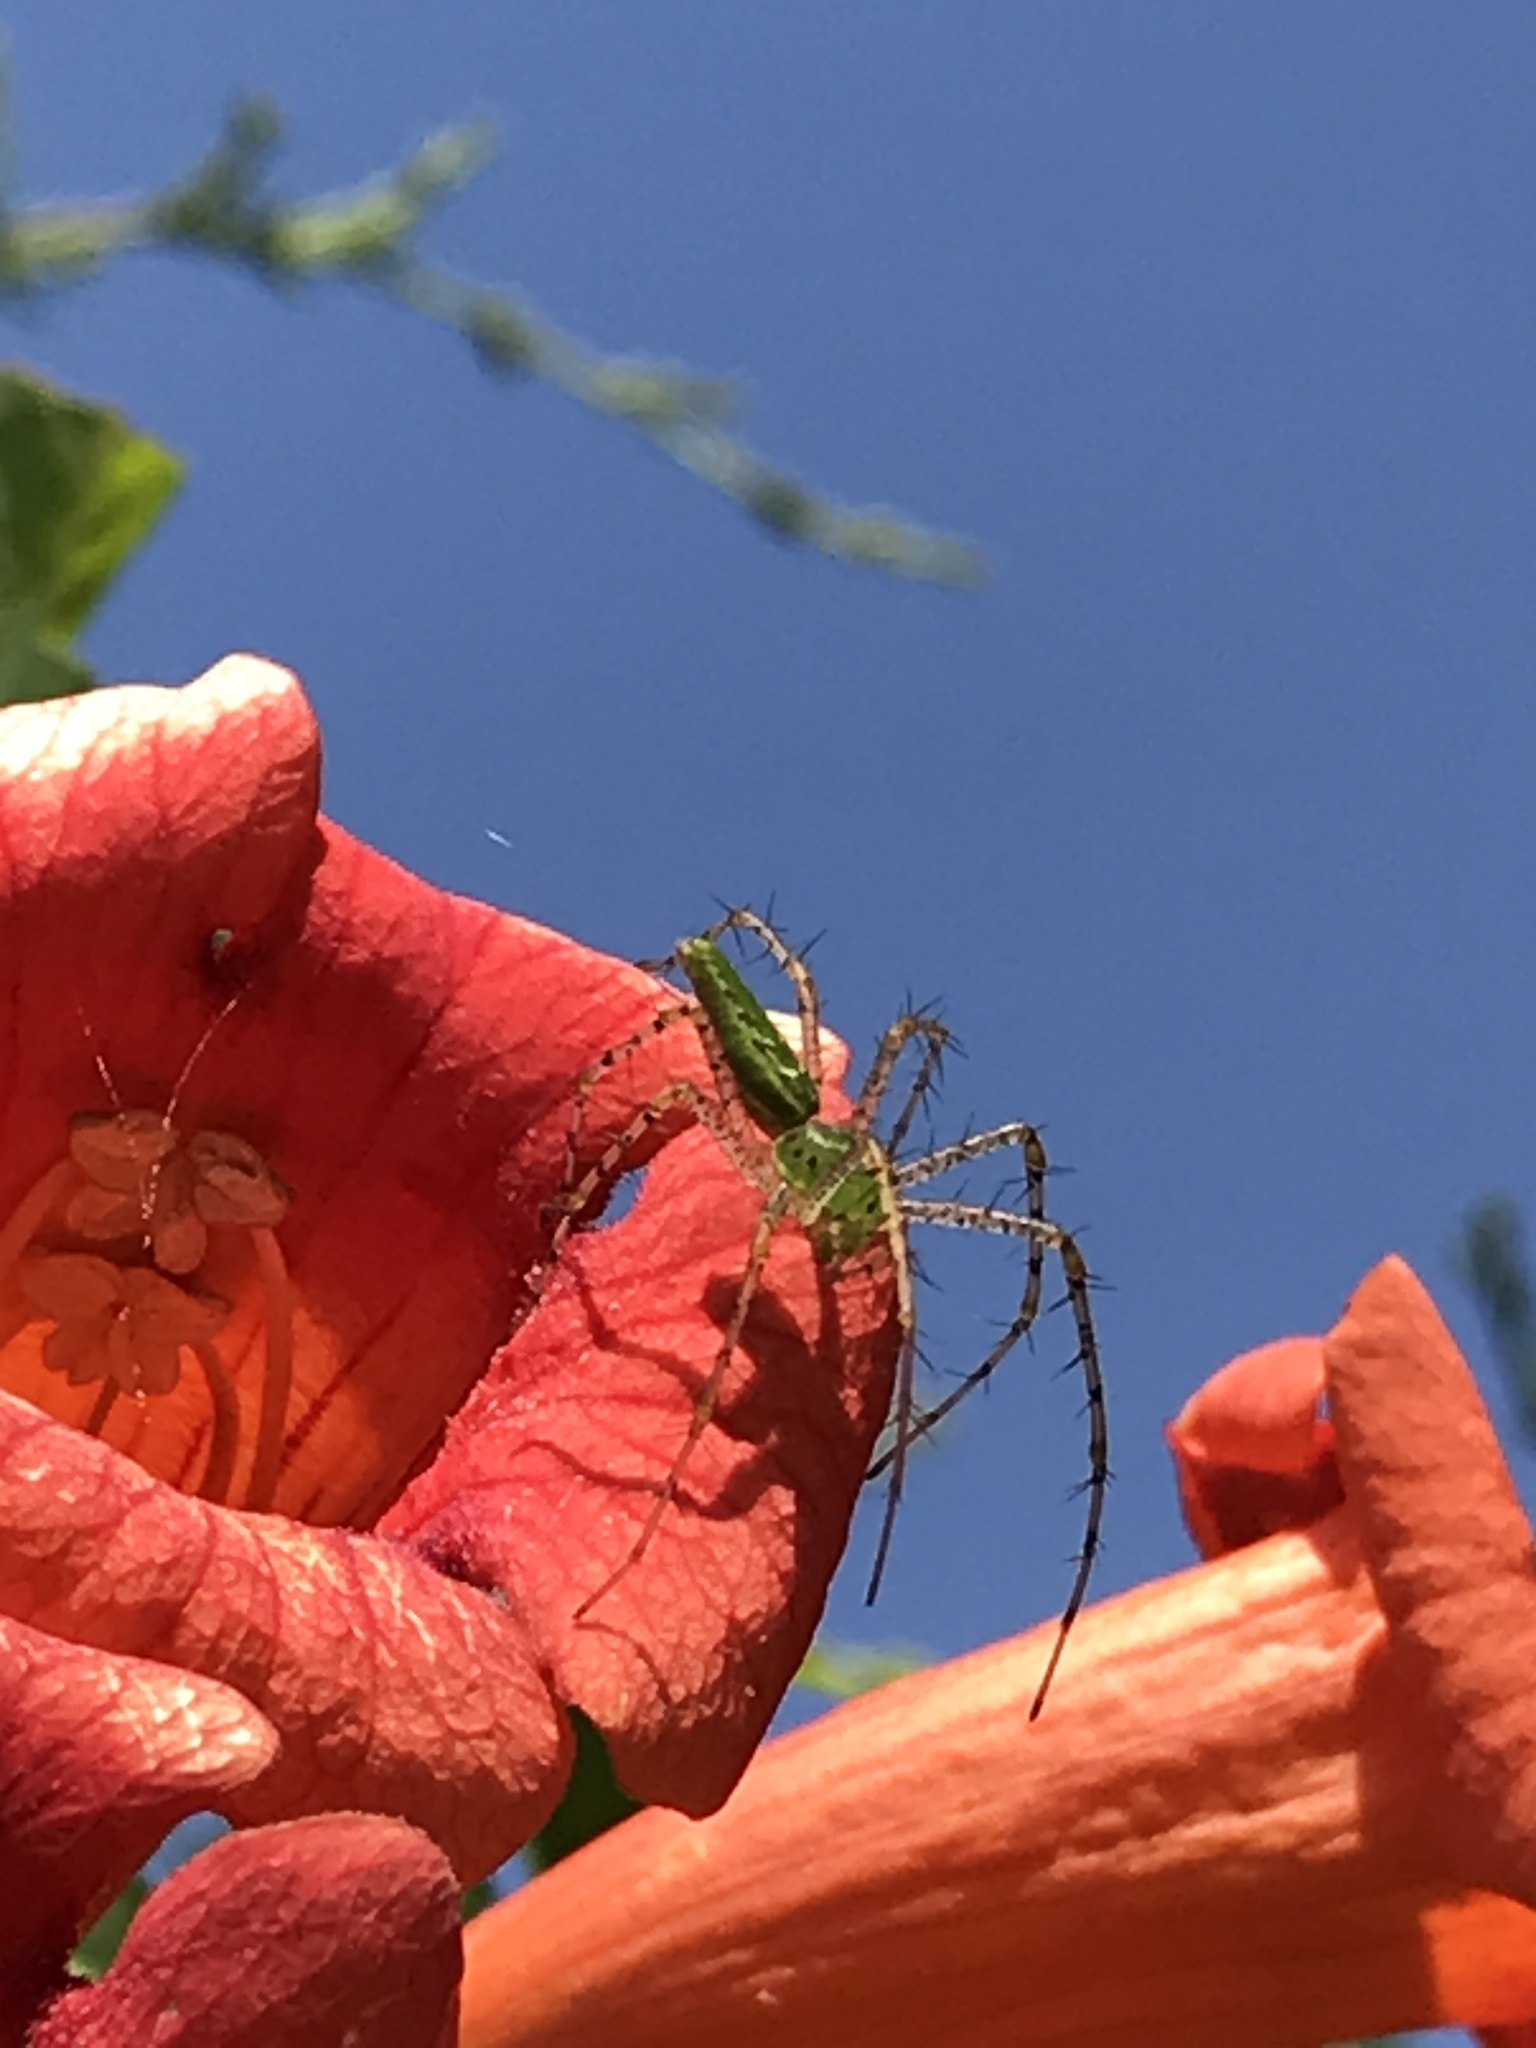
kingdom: Animalia
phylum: Arthropoda
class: Arachnida
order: Araneae
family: Oxyopidae
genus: Peucetia
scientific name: Peucetia viridans
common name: Lynx spiders
